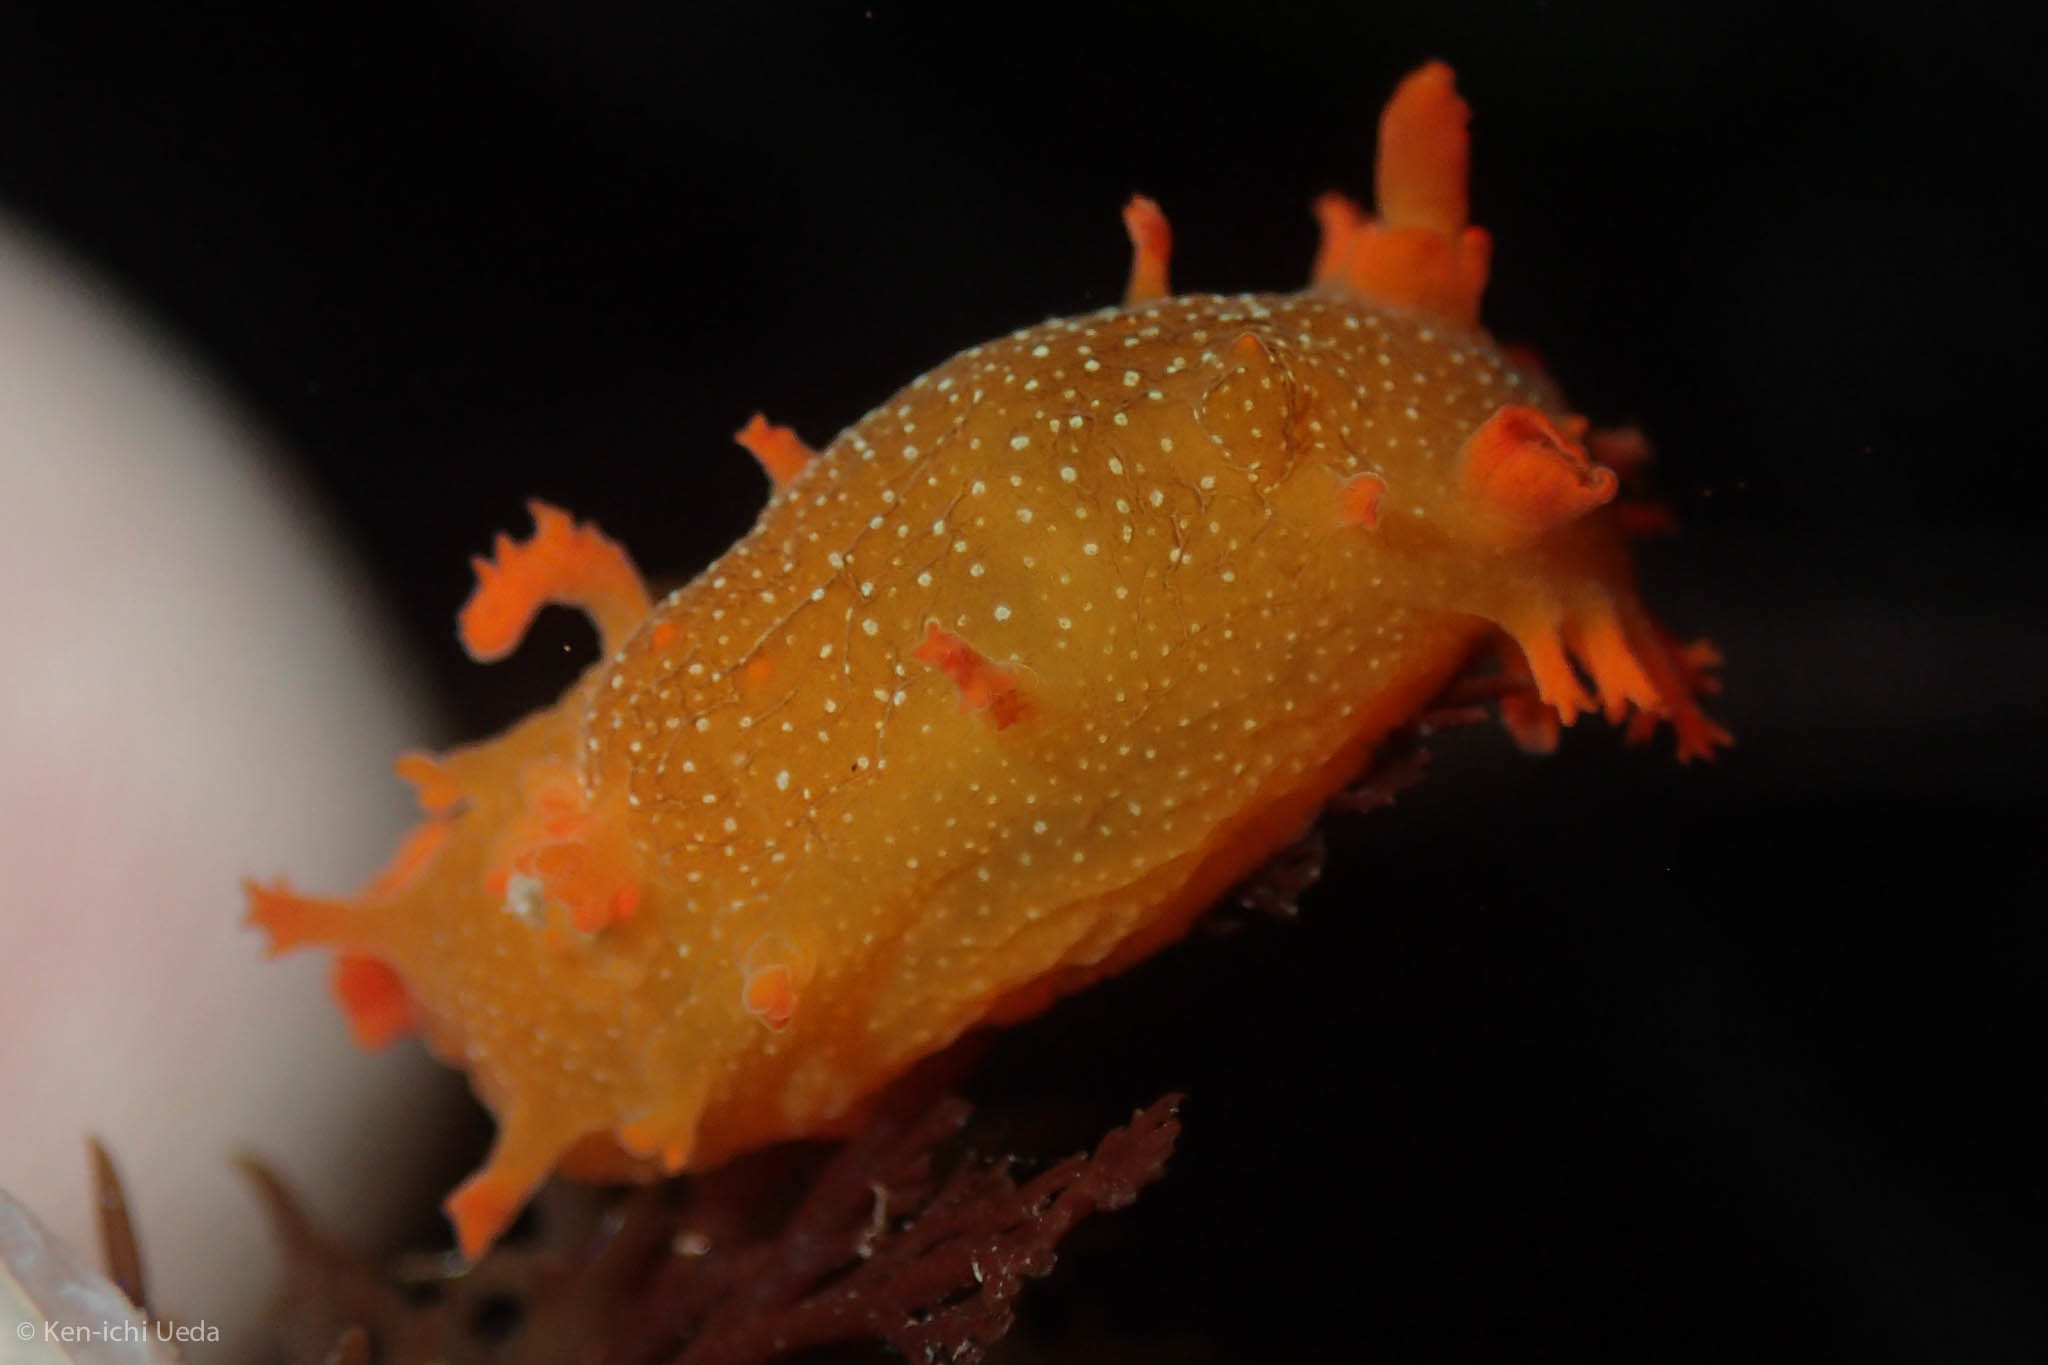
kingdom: Animalia
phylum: Mollusca
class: Gastropoda
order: Nudibranchia
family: Polyceridae
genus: Triopha
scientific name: Triopha maculata
